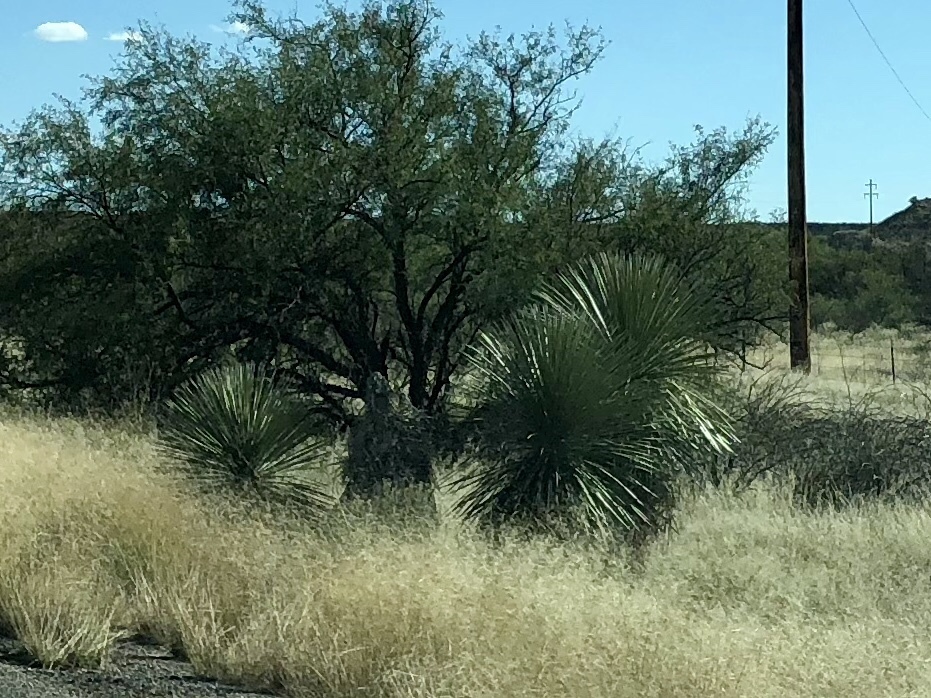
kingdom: Plantae
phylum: Tracheophyta
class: Liliopsida
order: Asparagales
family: Asparagaceae
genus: Yucca
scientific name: Yucca elata
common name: Palmella
